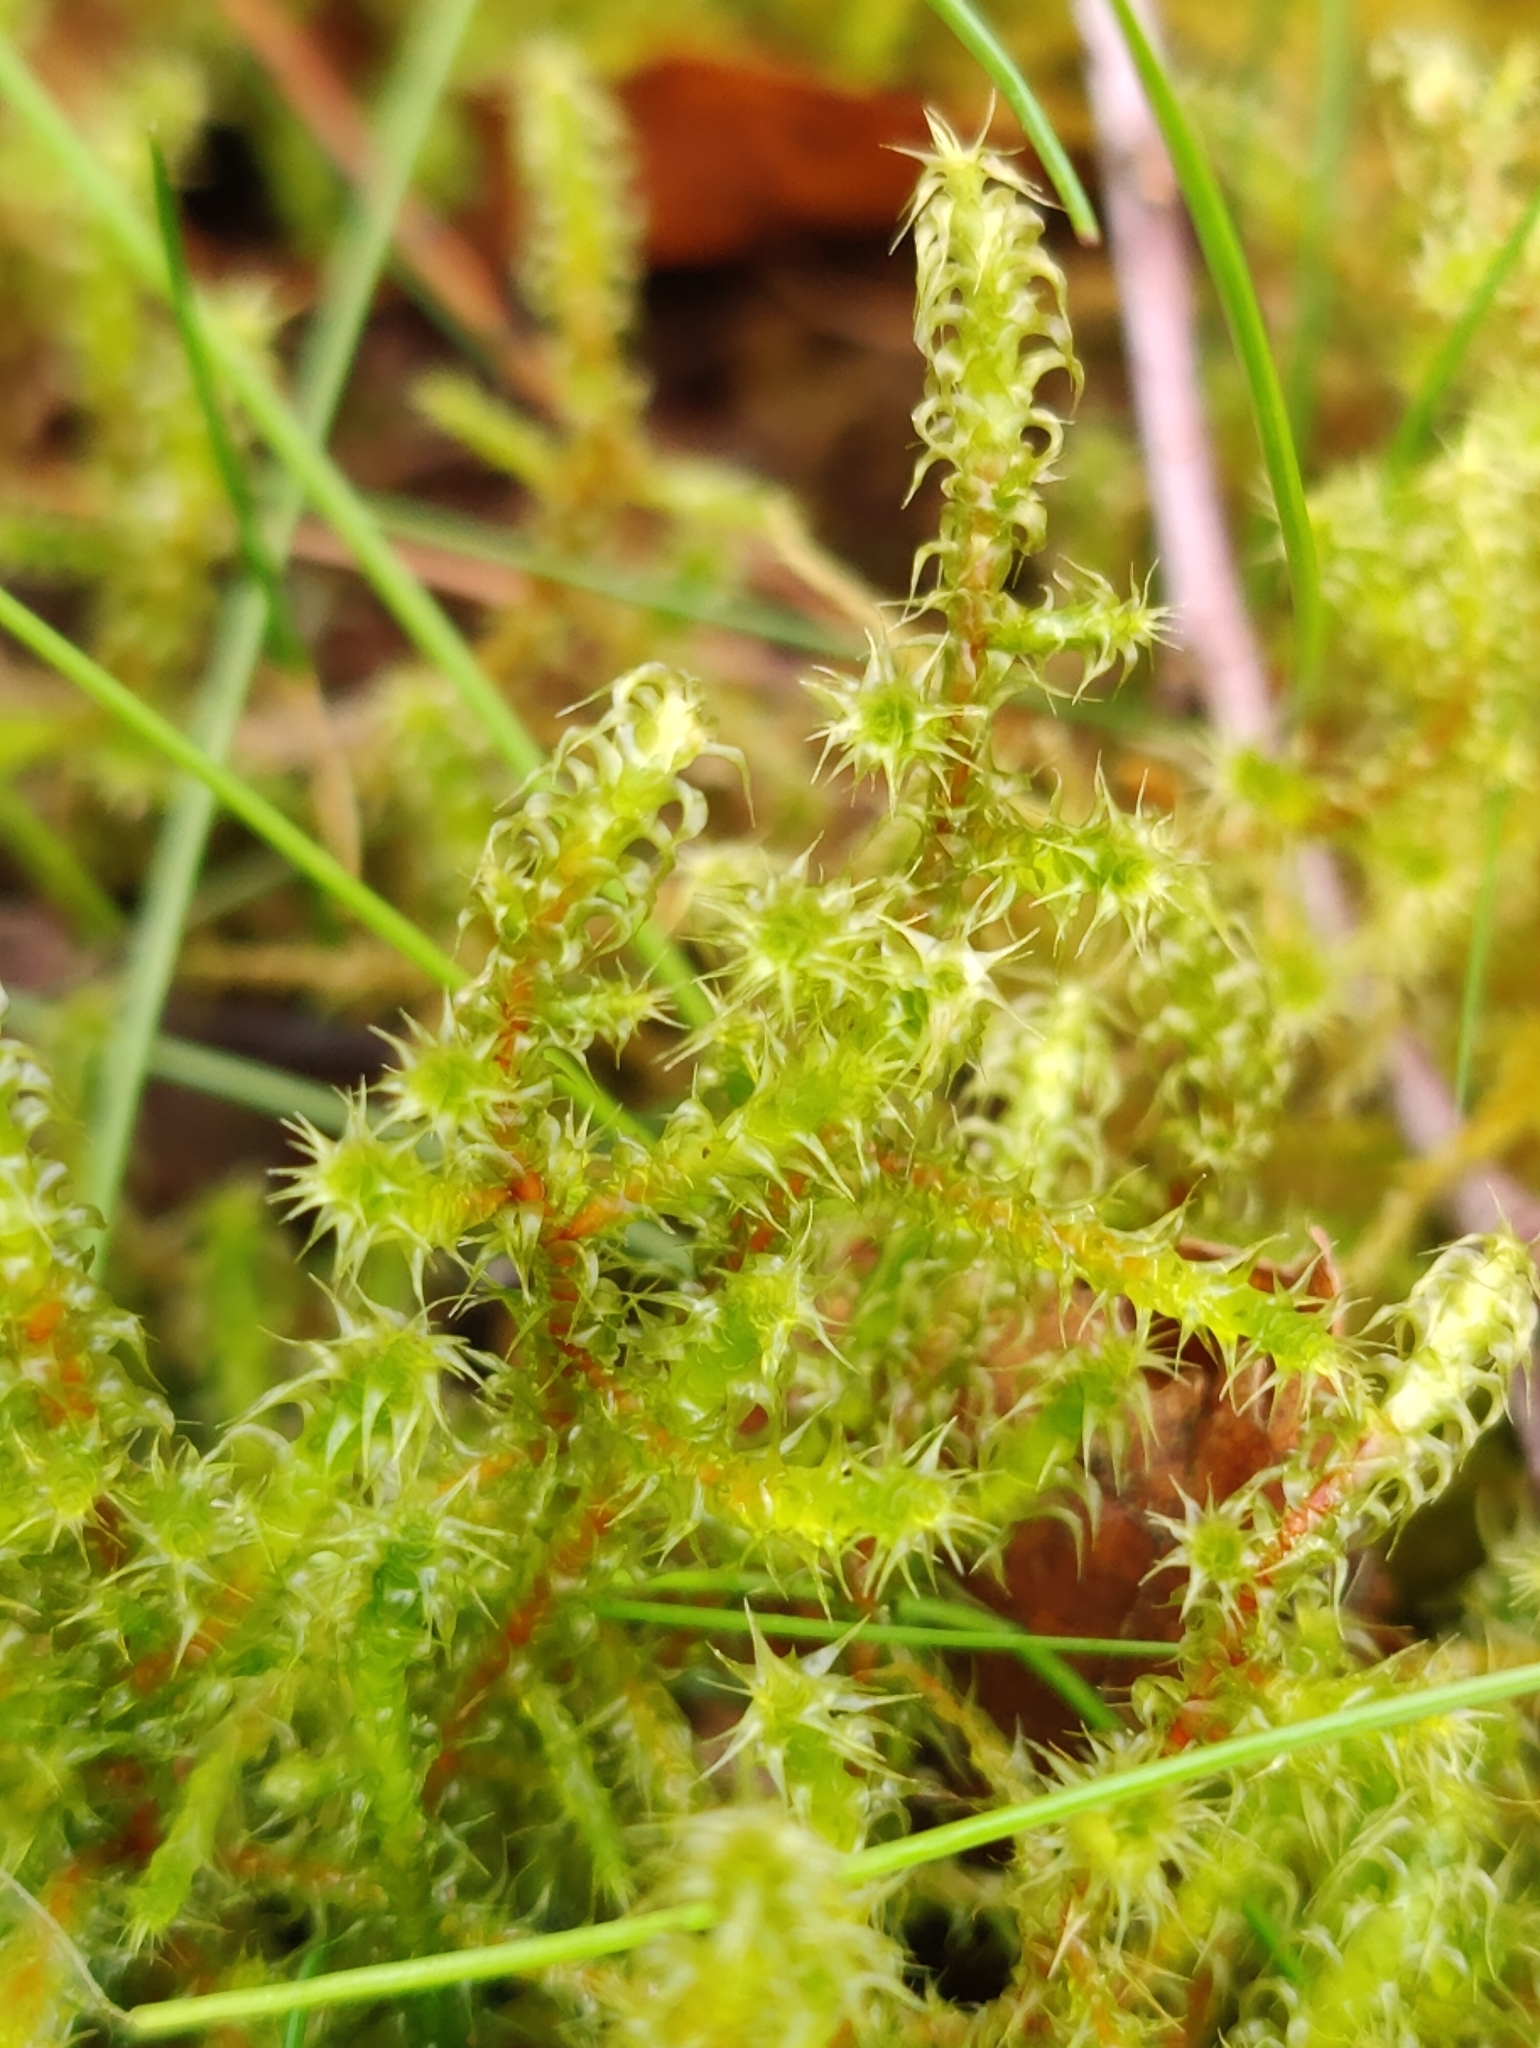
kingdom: Plantae
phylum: Bryophyta
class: Bryopsida
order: Hypnales
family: Hylocomiaceae
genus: Rhytidiadelphus
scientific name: Rhytidiadelphus squarrosus
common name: Springy turf-moss
